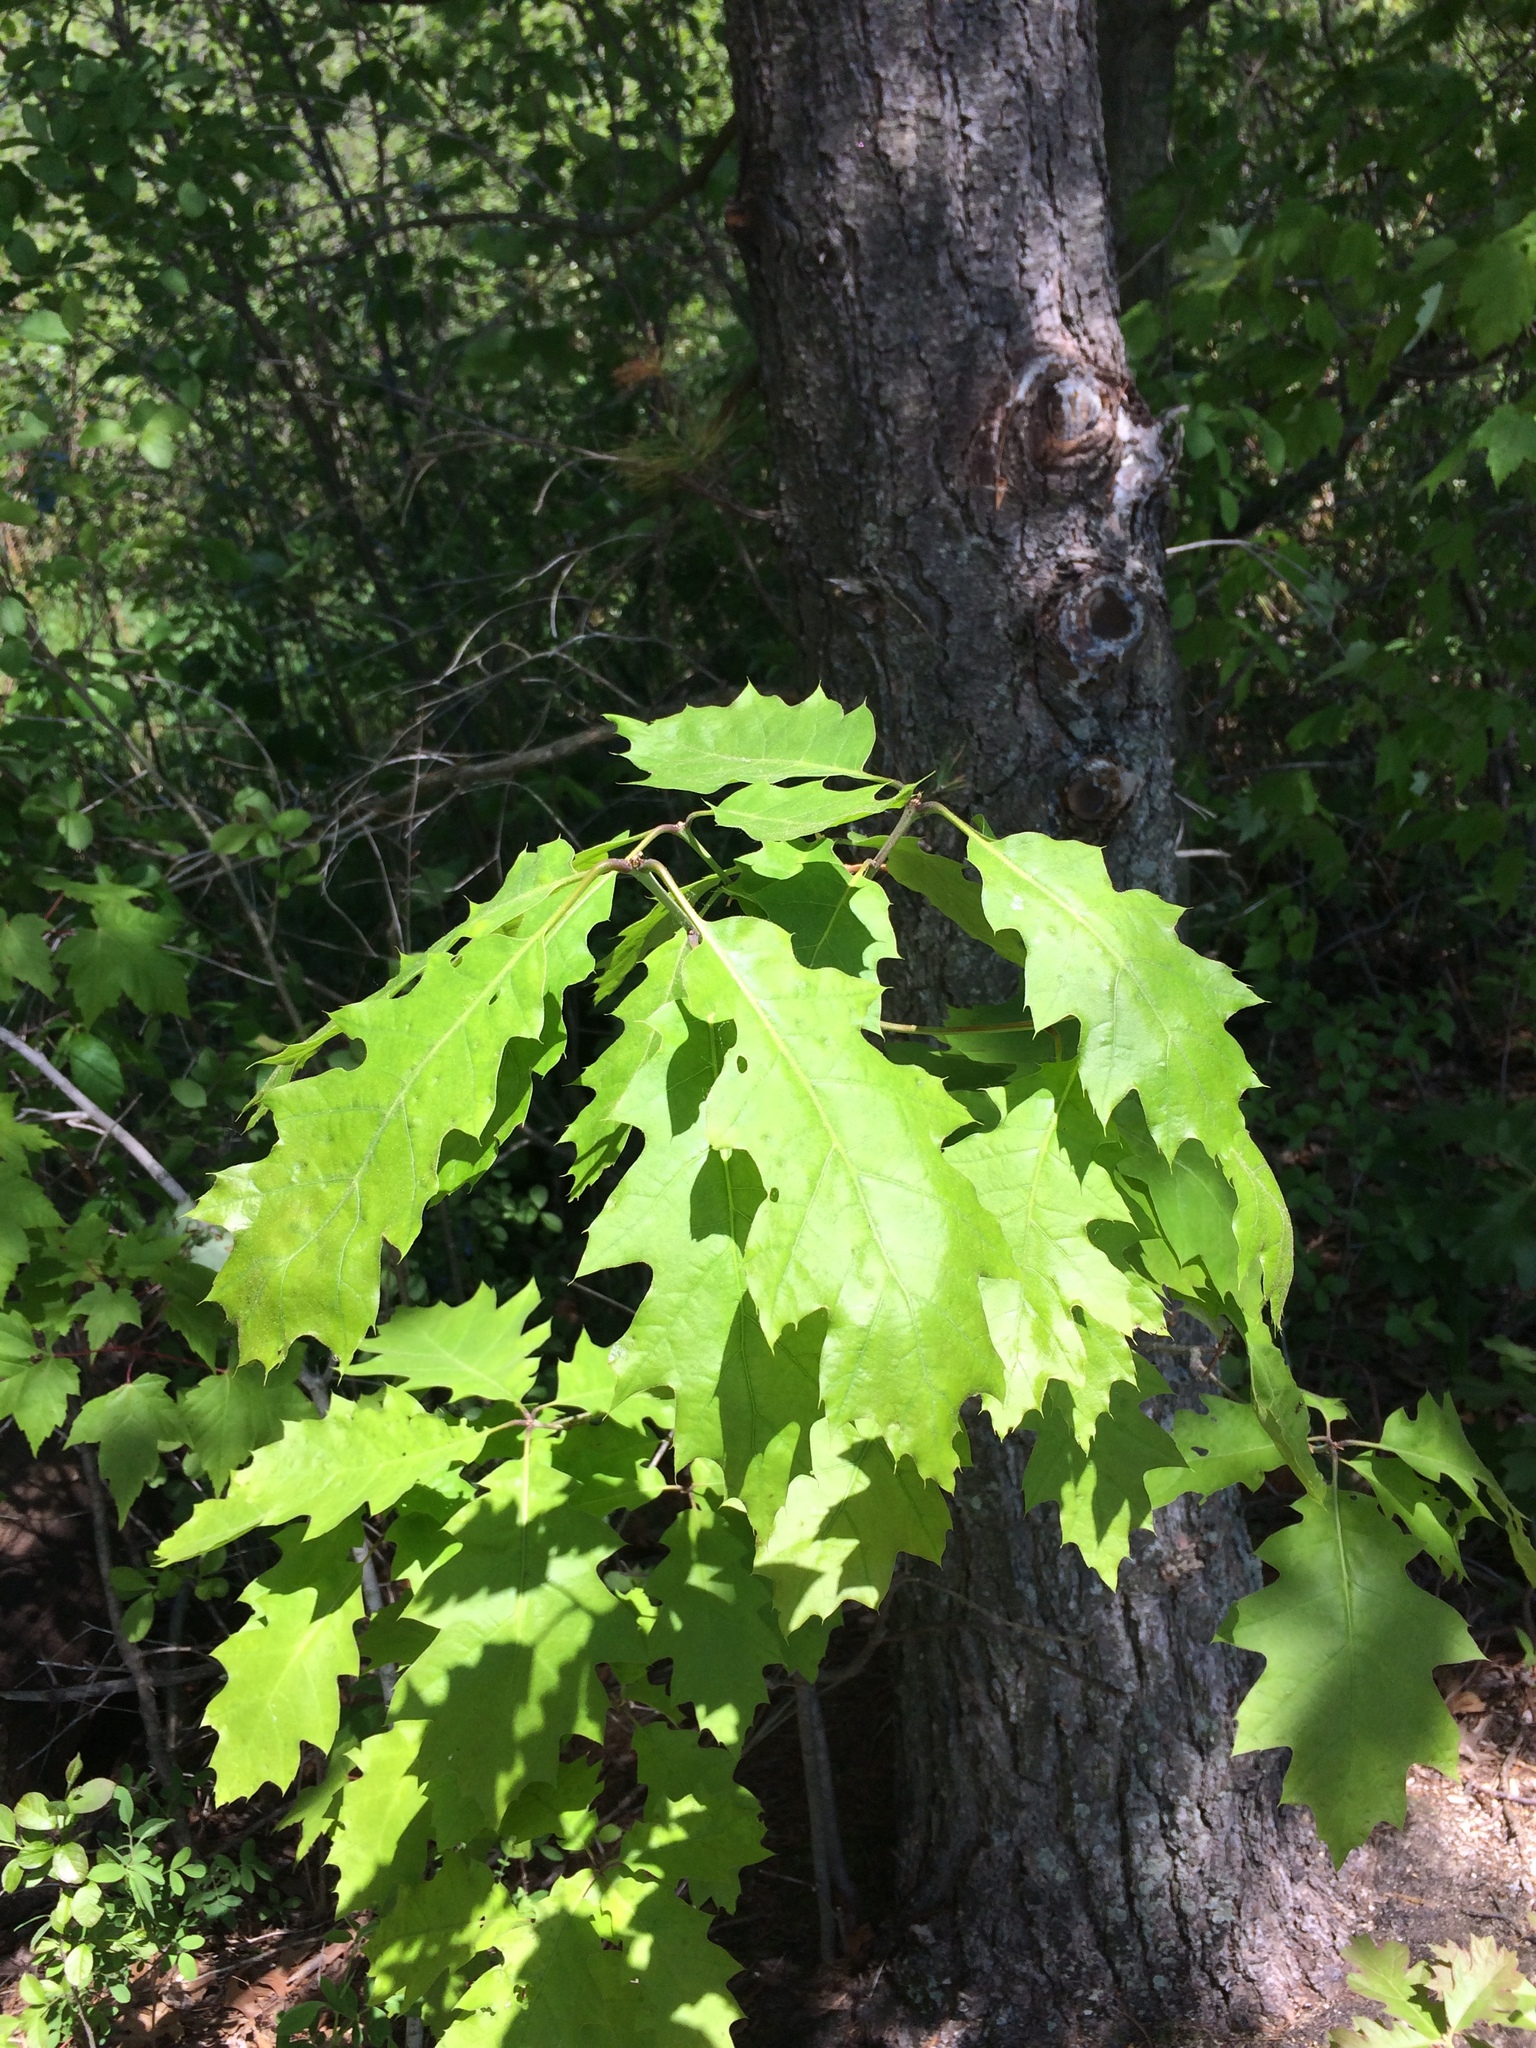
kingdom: Plantae
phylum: Tracheophyta
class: Magnoliopsida
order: Fagales
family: Fagaceae
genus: Quercus
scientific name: Quercus rubra
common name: Red oak
